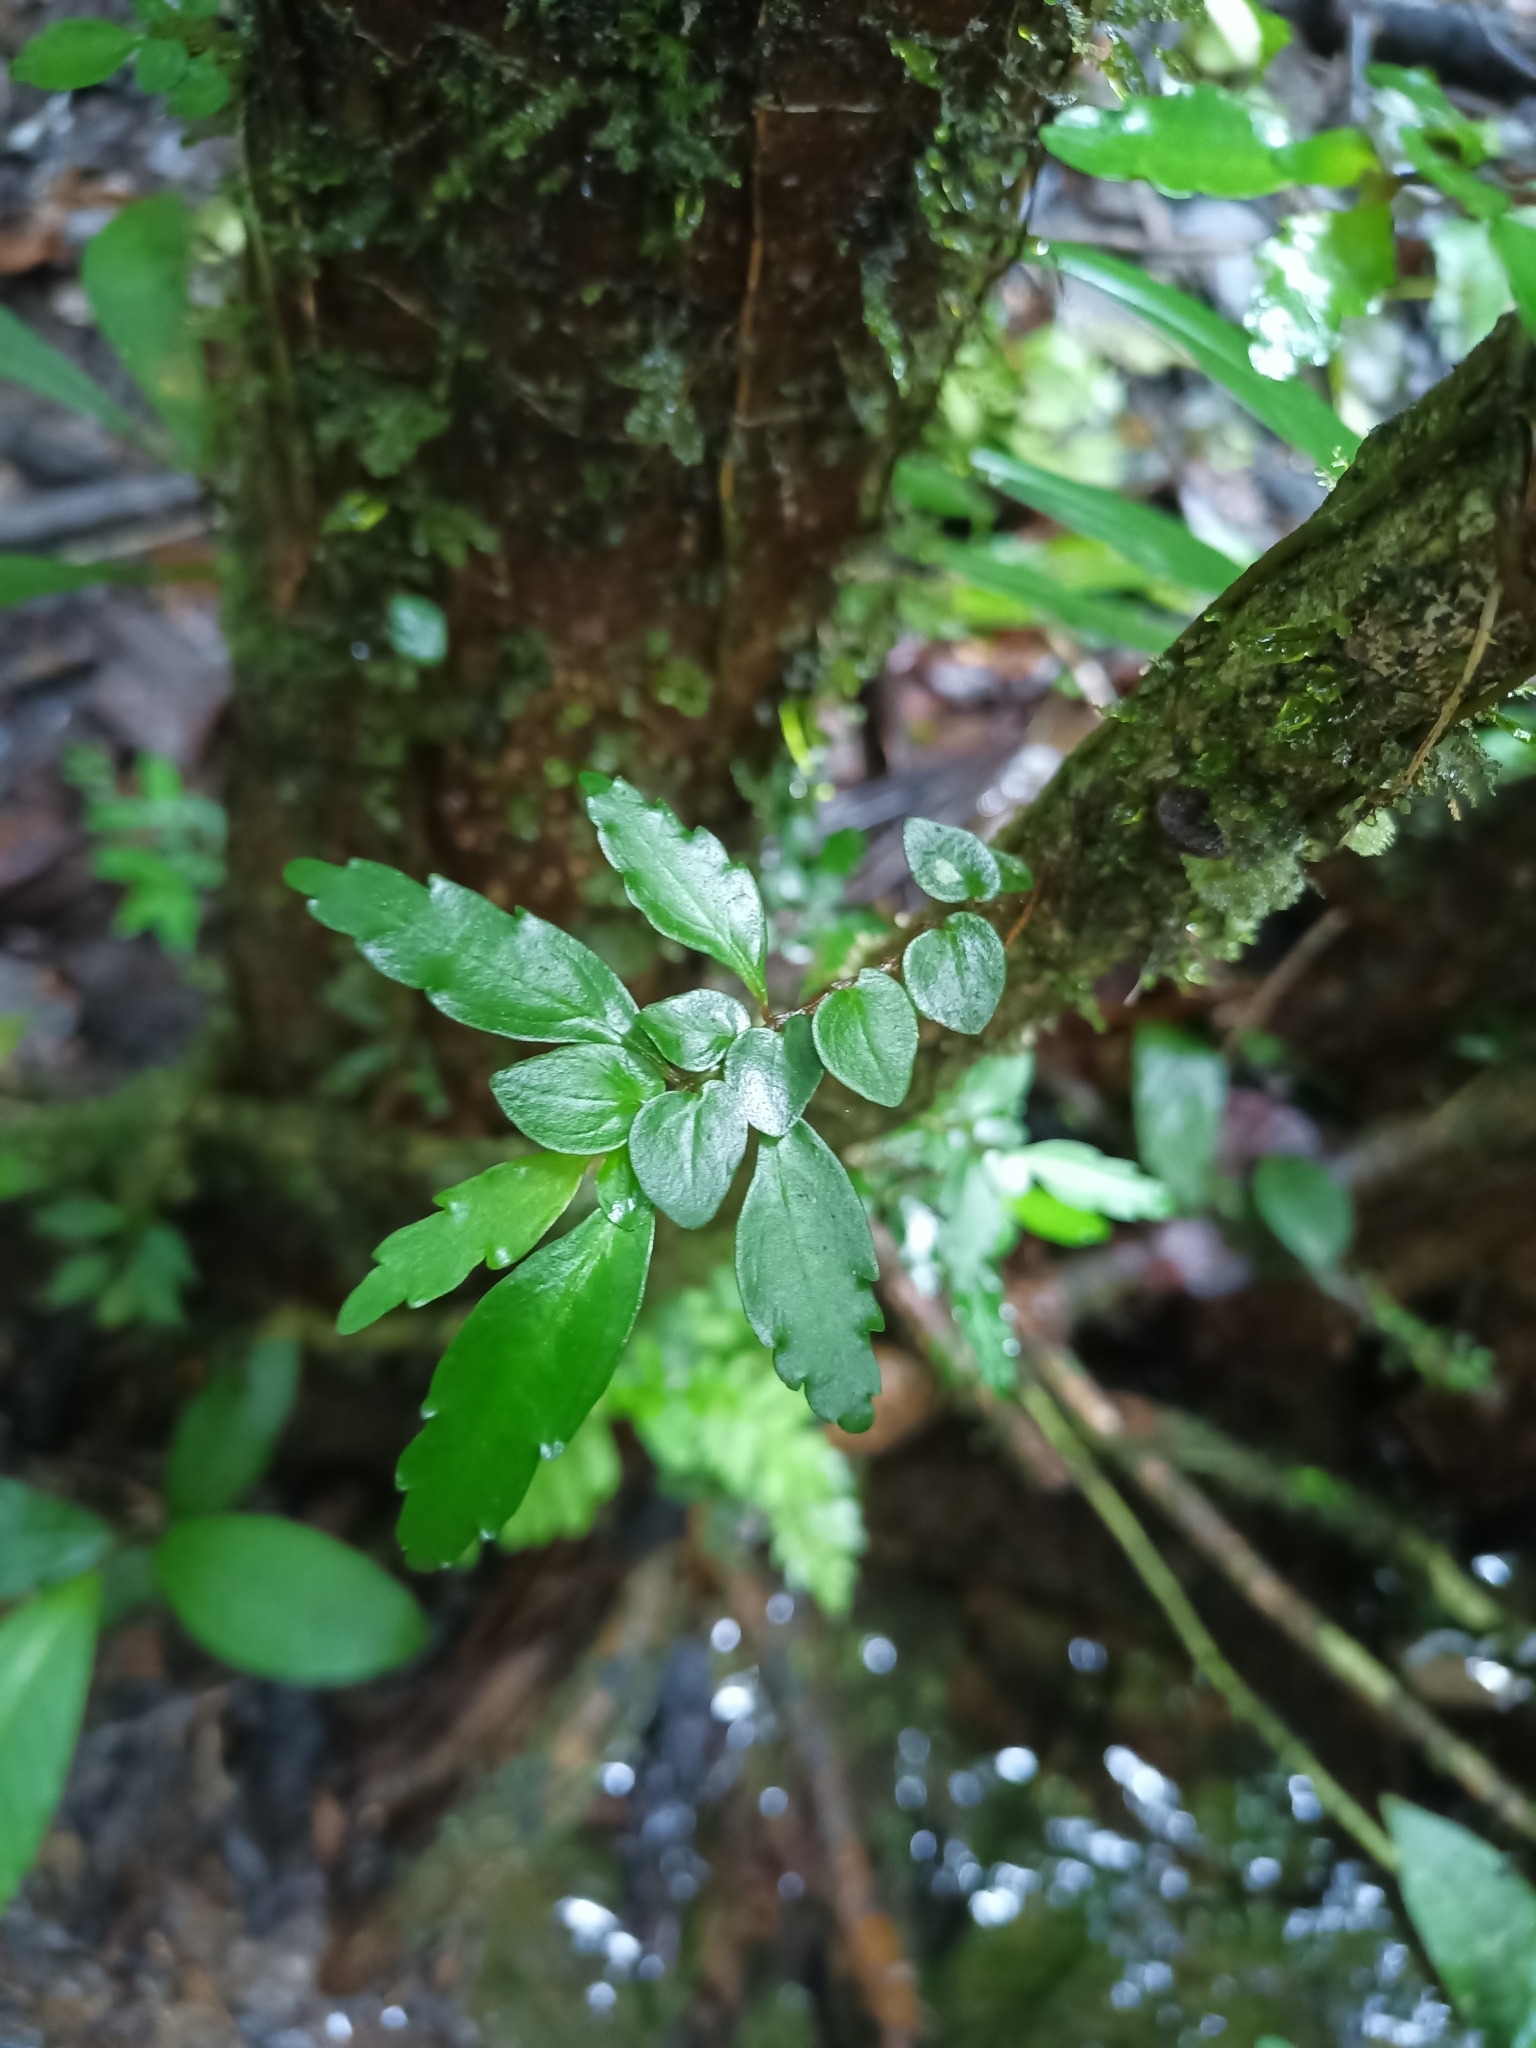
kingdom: Plantae
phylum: Tracheophyta
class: Magnoliopsida
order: Rosales
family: Urticaceae
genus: Pilea
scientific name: Pilea imparifolia
